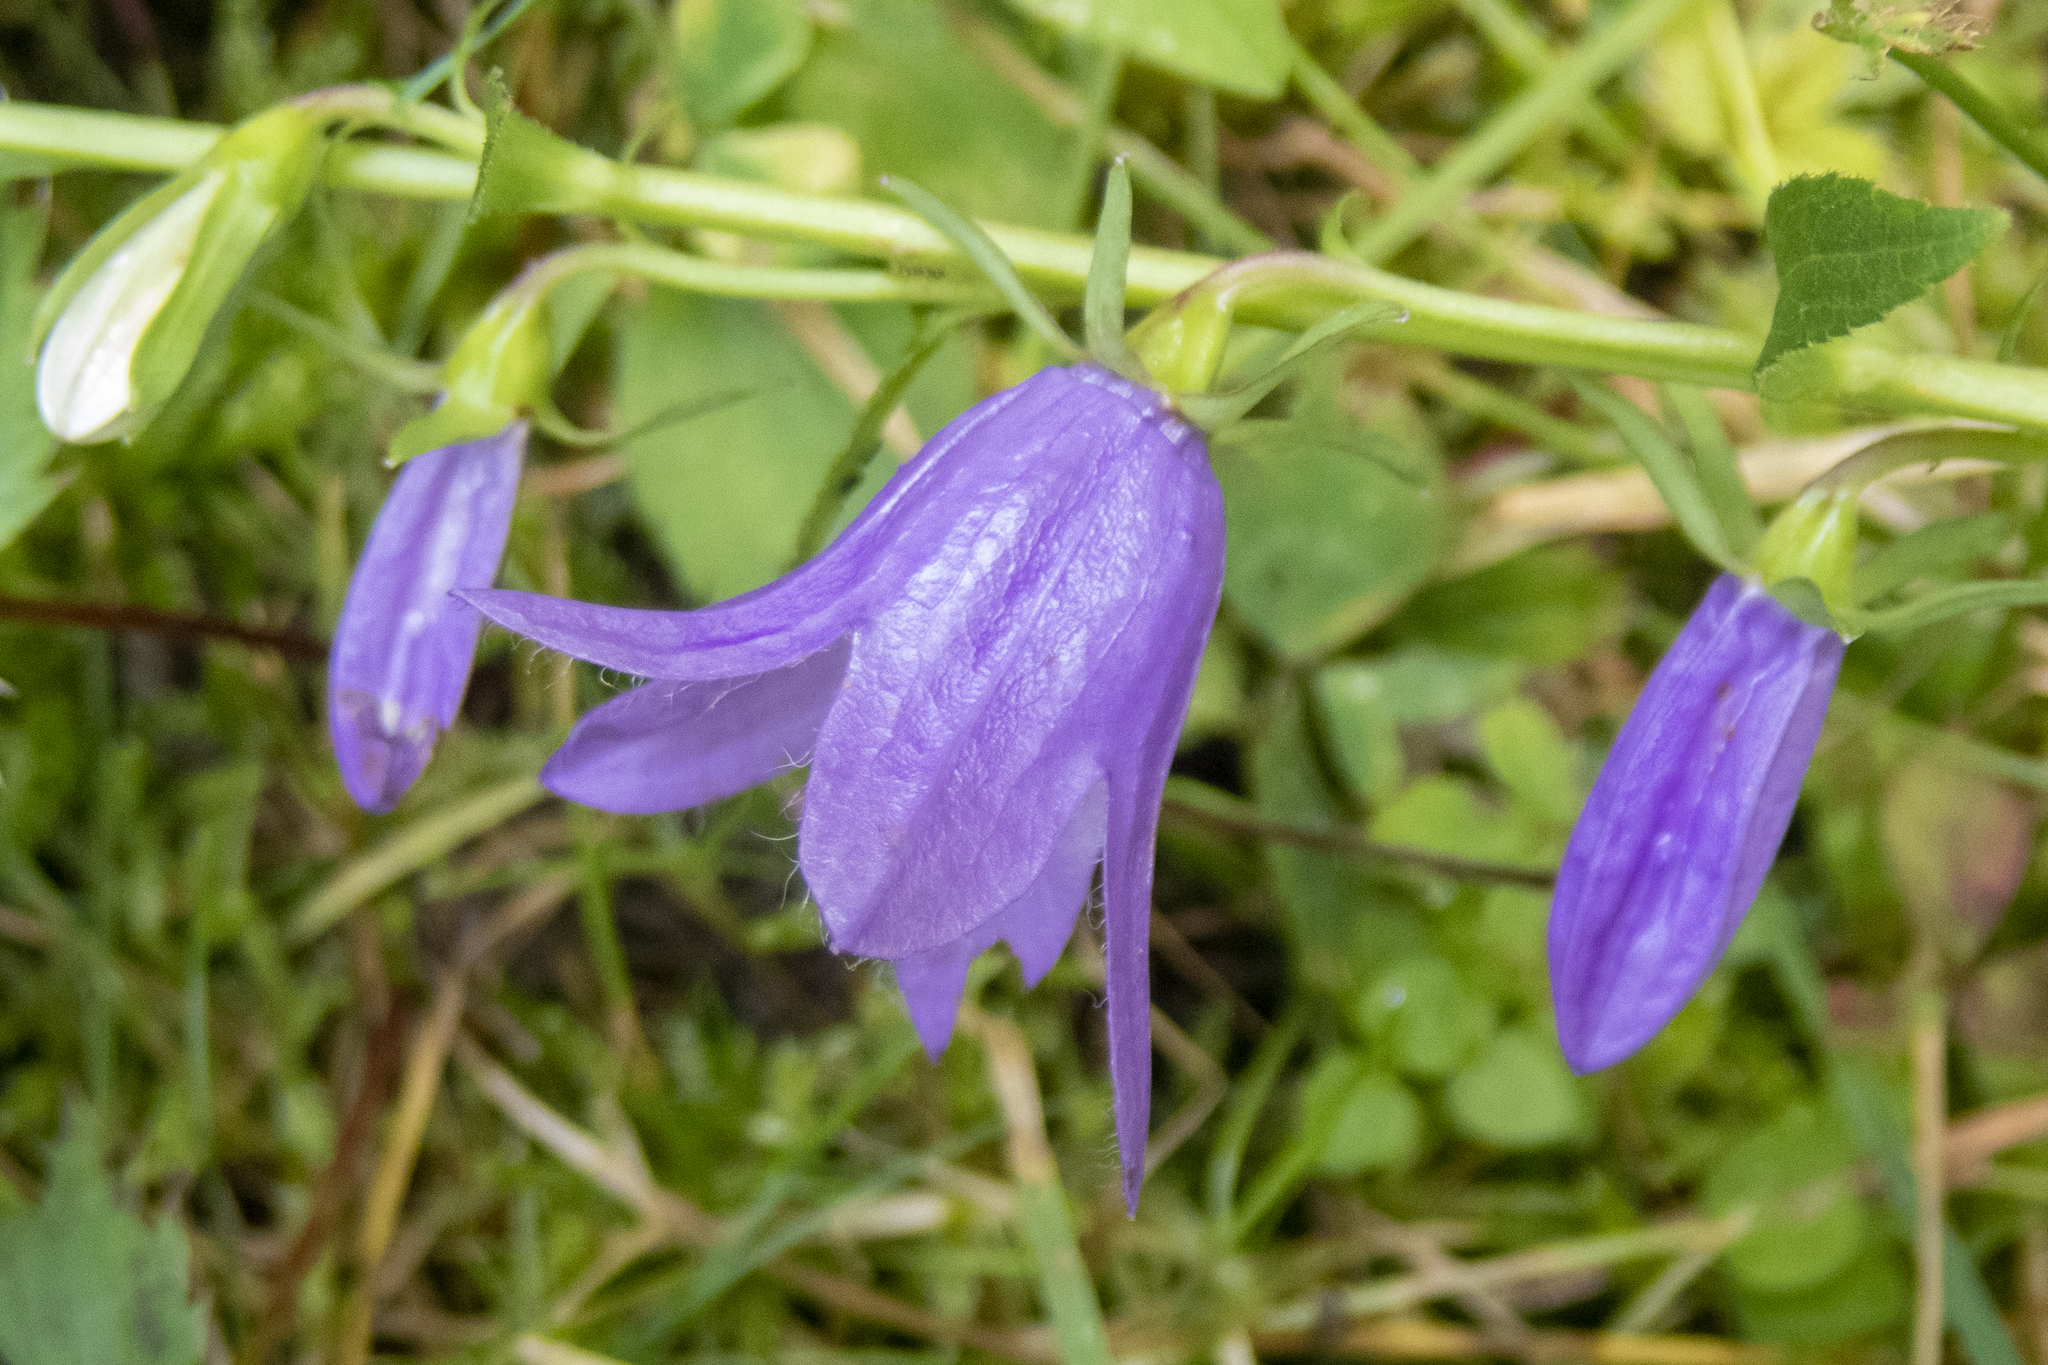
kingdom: Plantae
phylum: Tracheophyta
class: Magnoliopsida
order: Asterales
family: Campanulaceae
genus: Campanula
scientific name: Campanula rapunculoides
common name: Creeping bellflower
